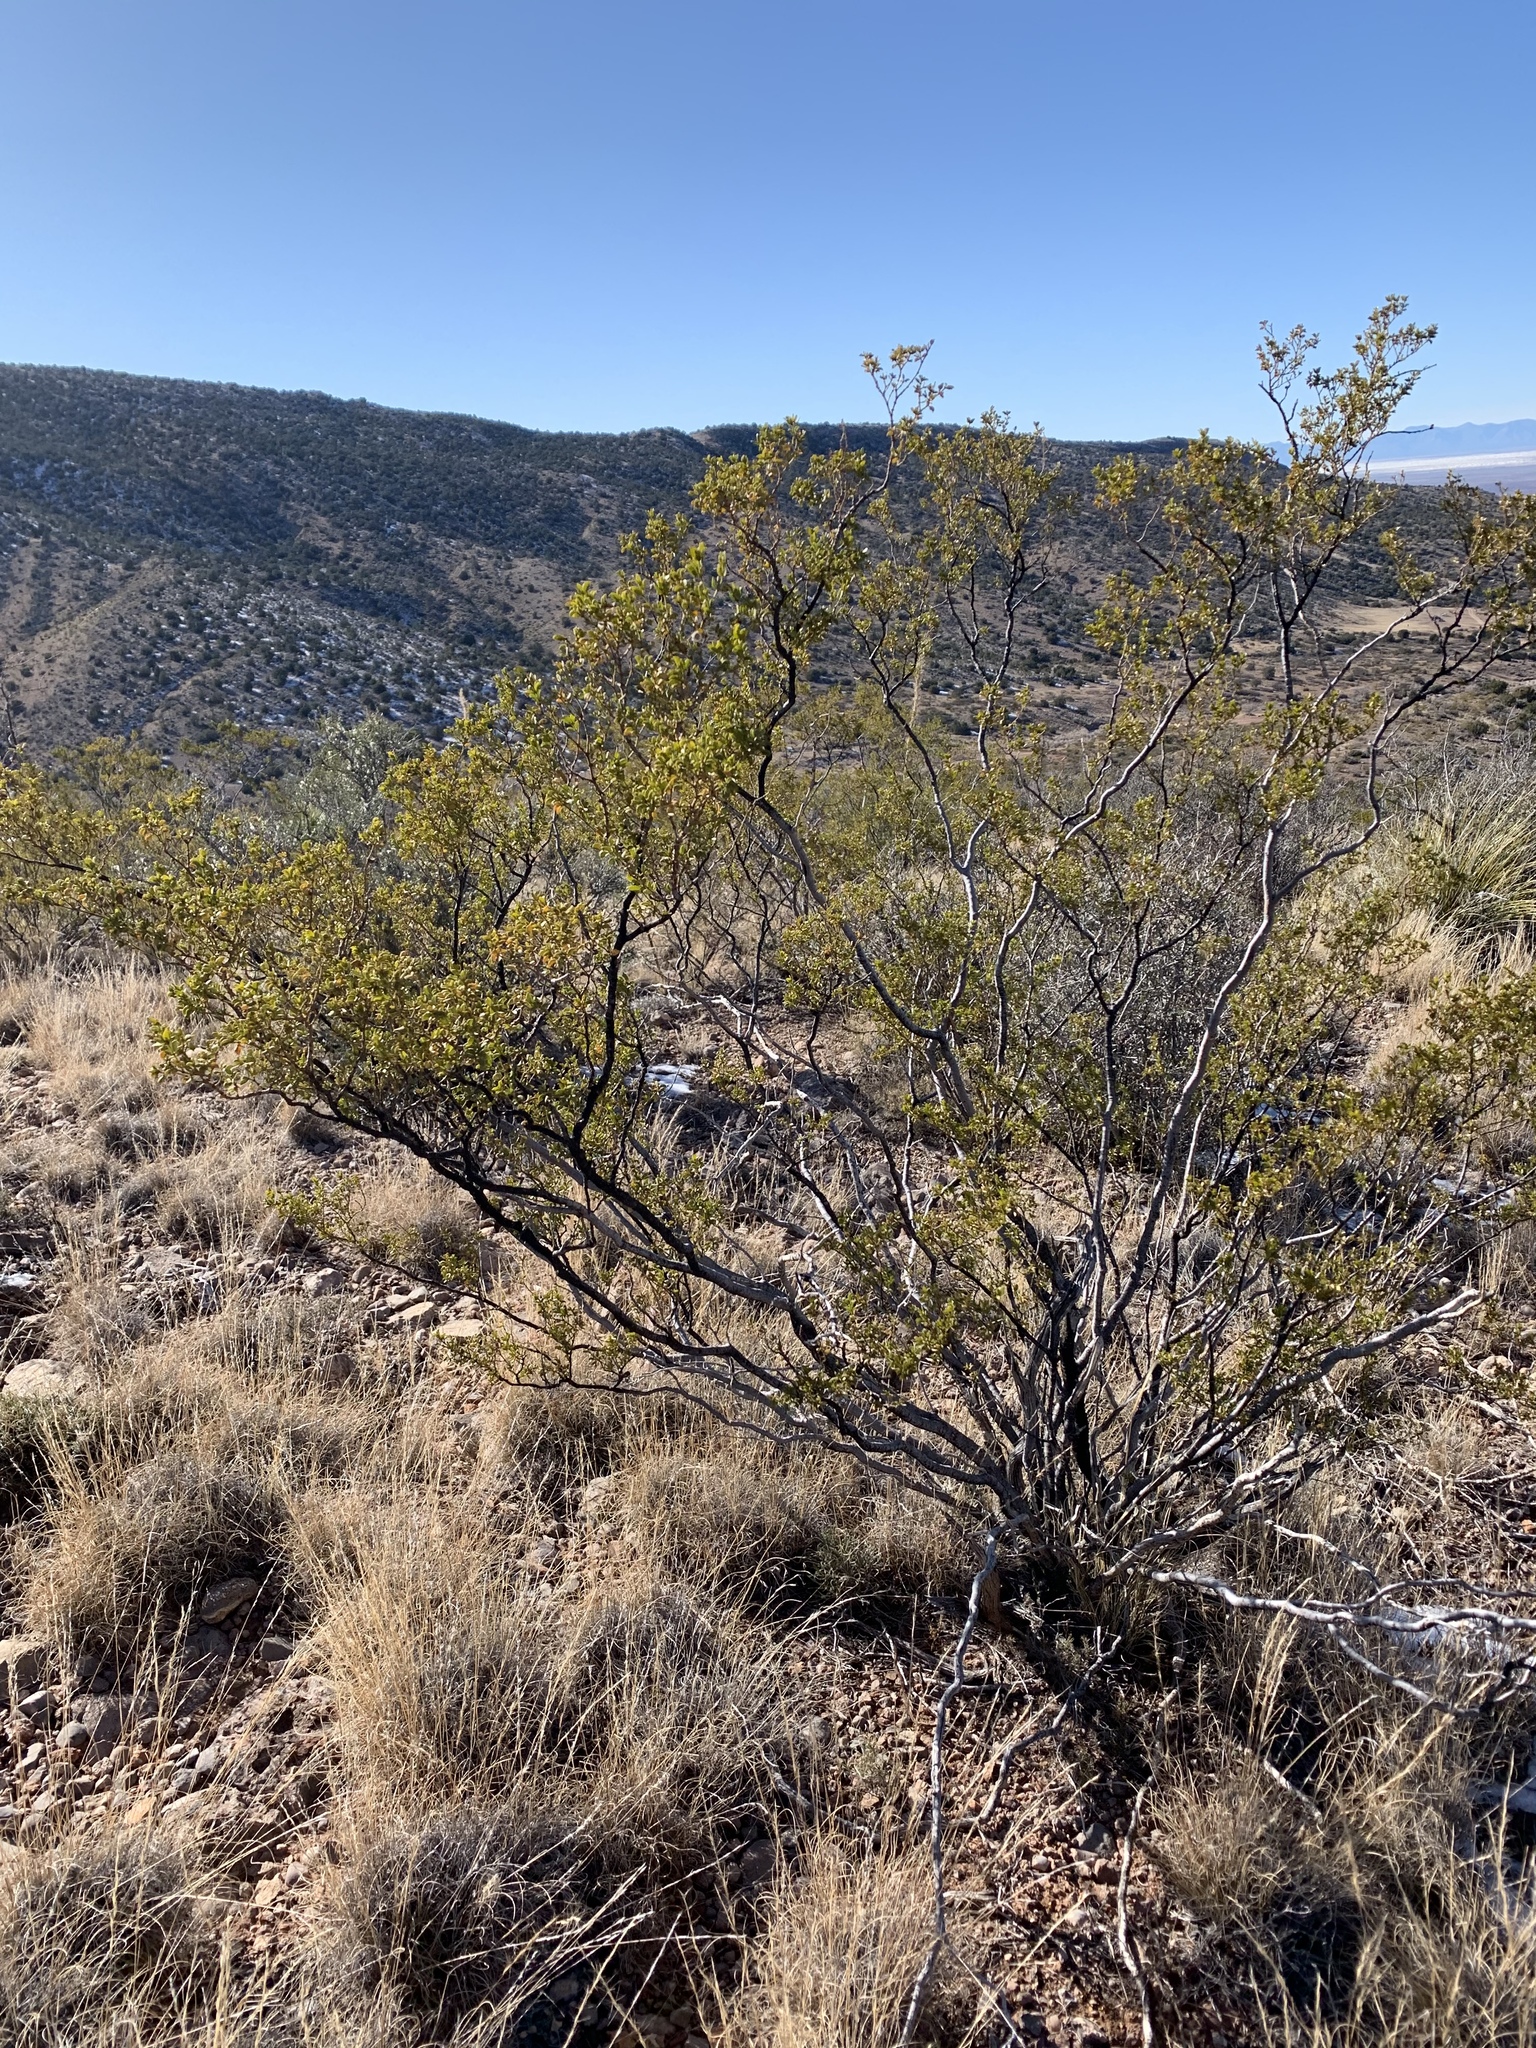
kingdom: Plantae
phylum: Tracheophyta
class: Magnoliopsida
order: Zygophyllales
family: Zygophyllaceae
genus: Larrea
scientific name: Larrea tridentata
